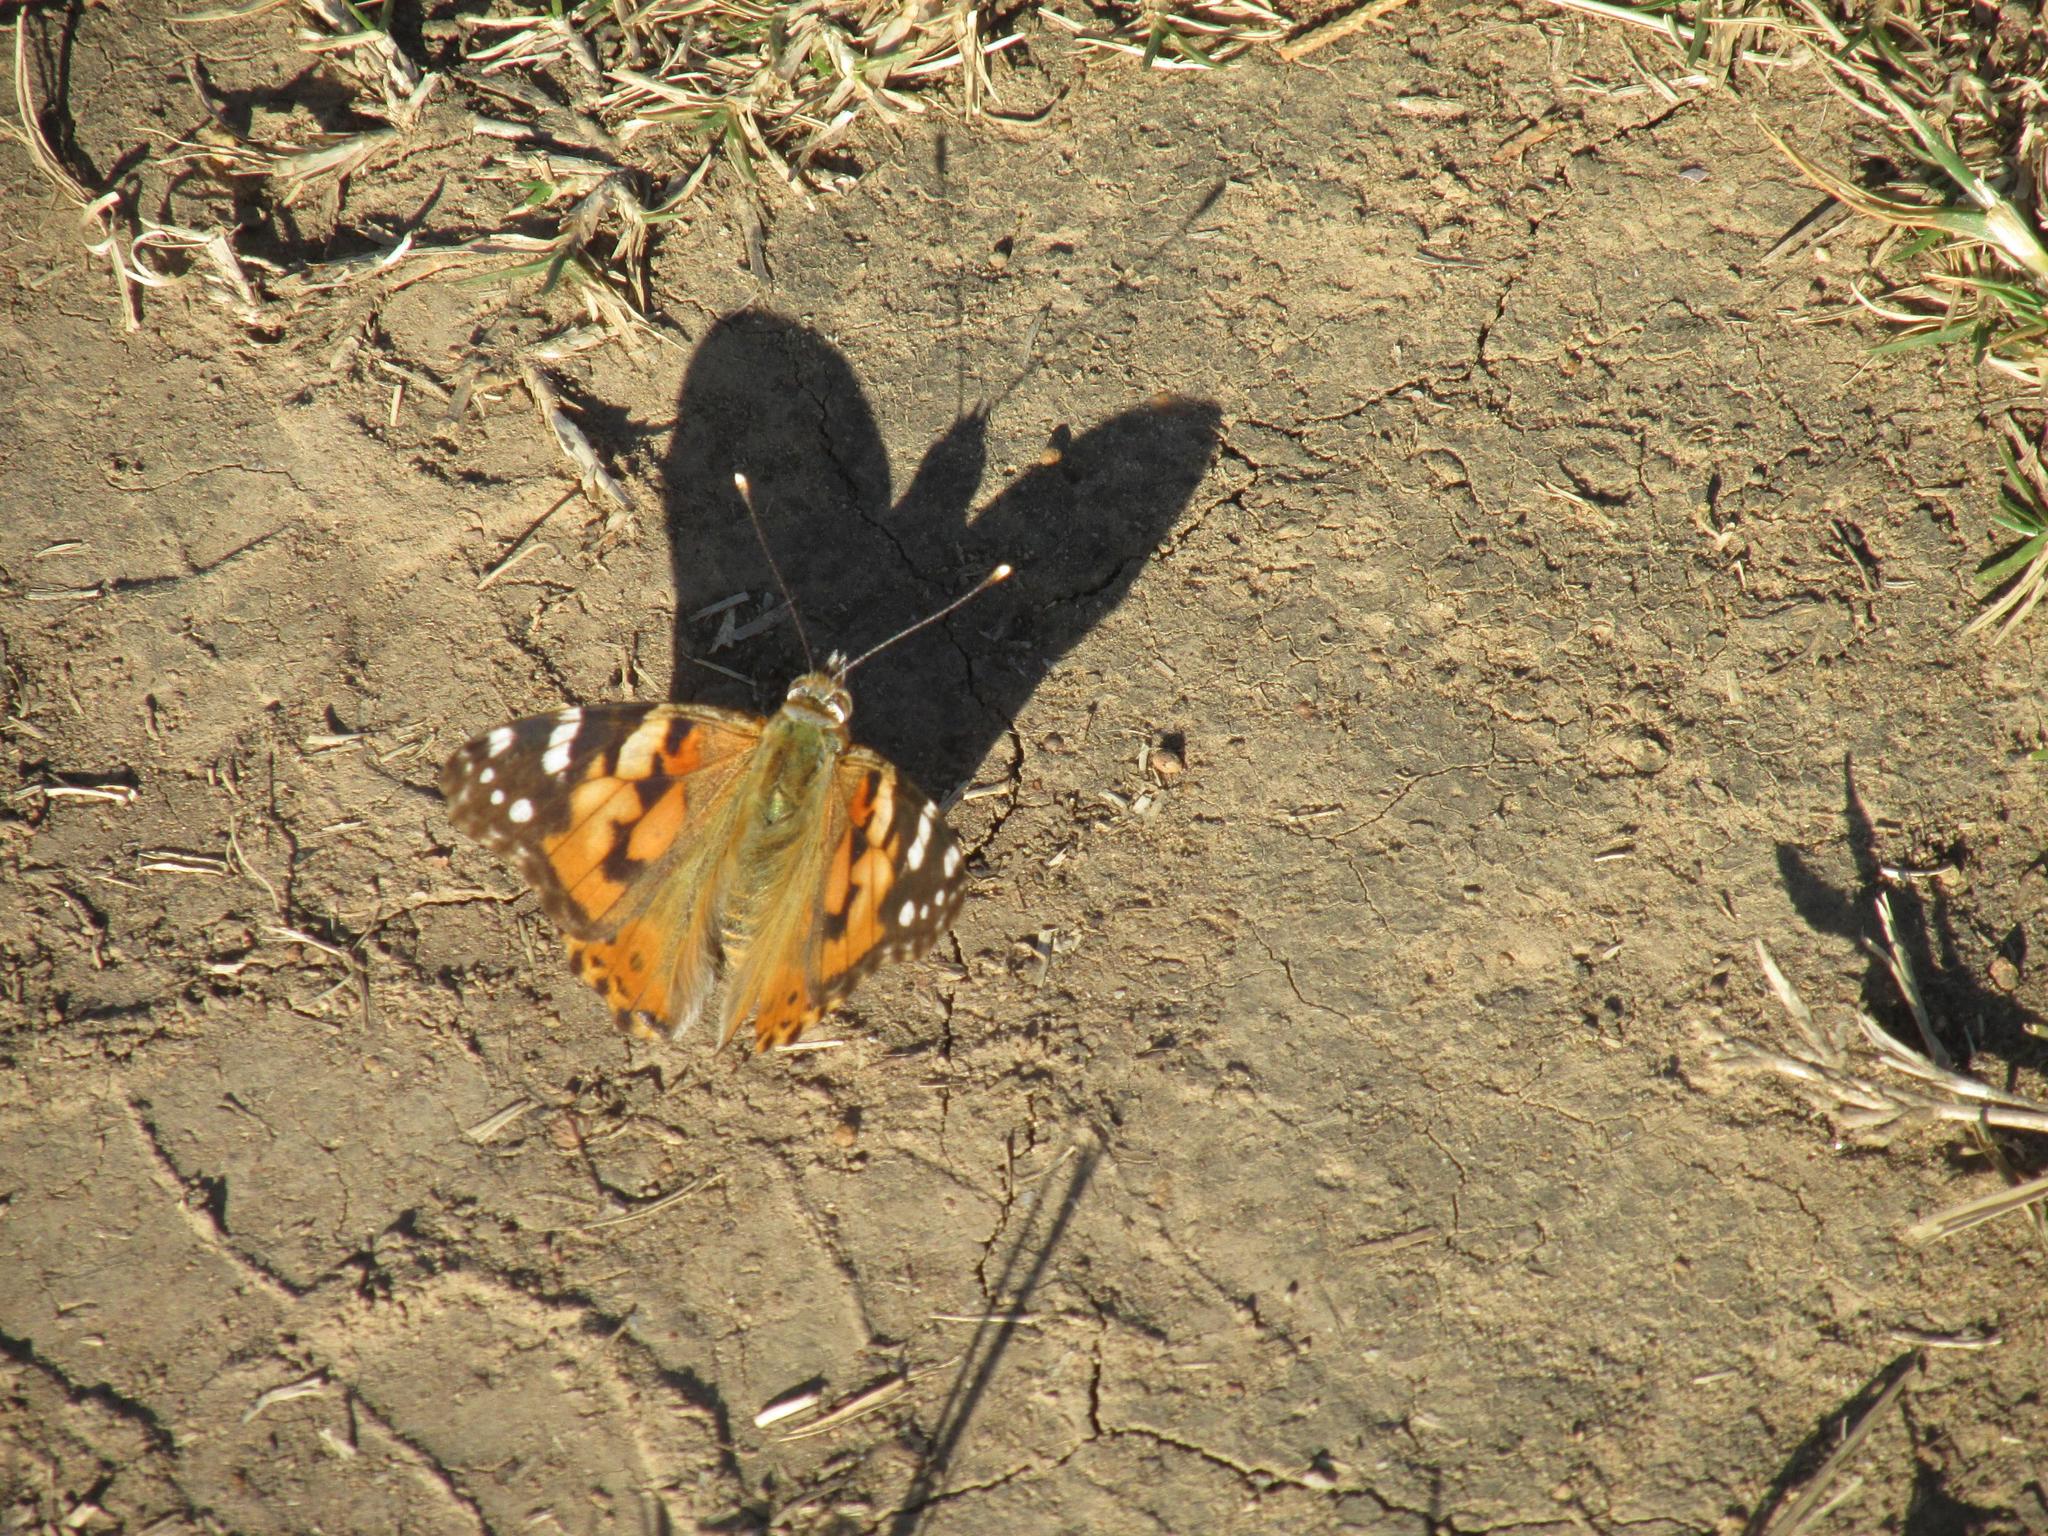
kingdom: Animalia
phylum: Arthropoda
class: Insecta
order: Lepidoptera
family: Nymphalidae
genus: Vanessa
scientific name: Vanessa cardui
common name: Painted lady
